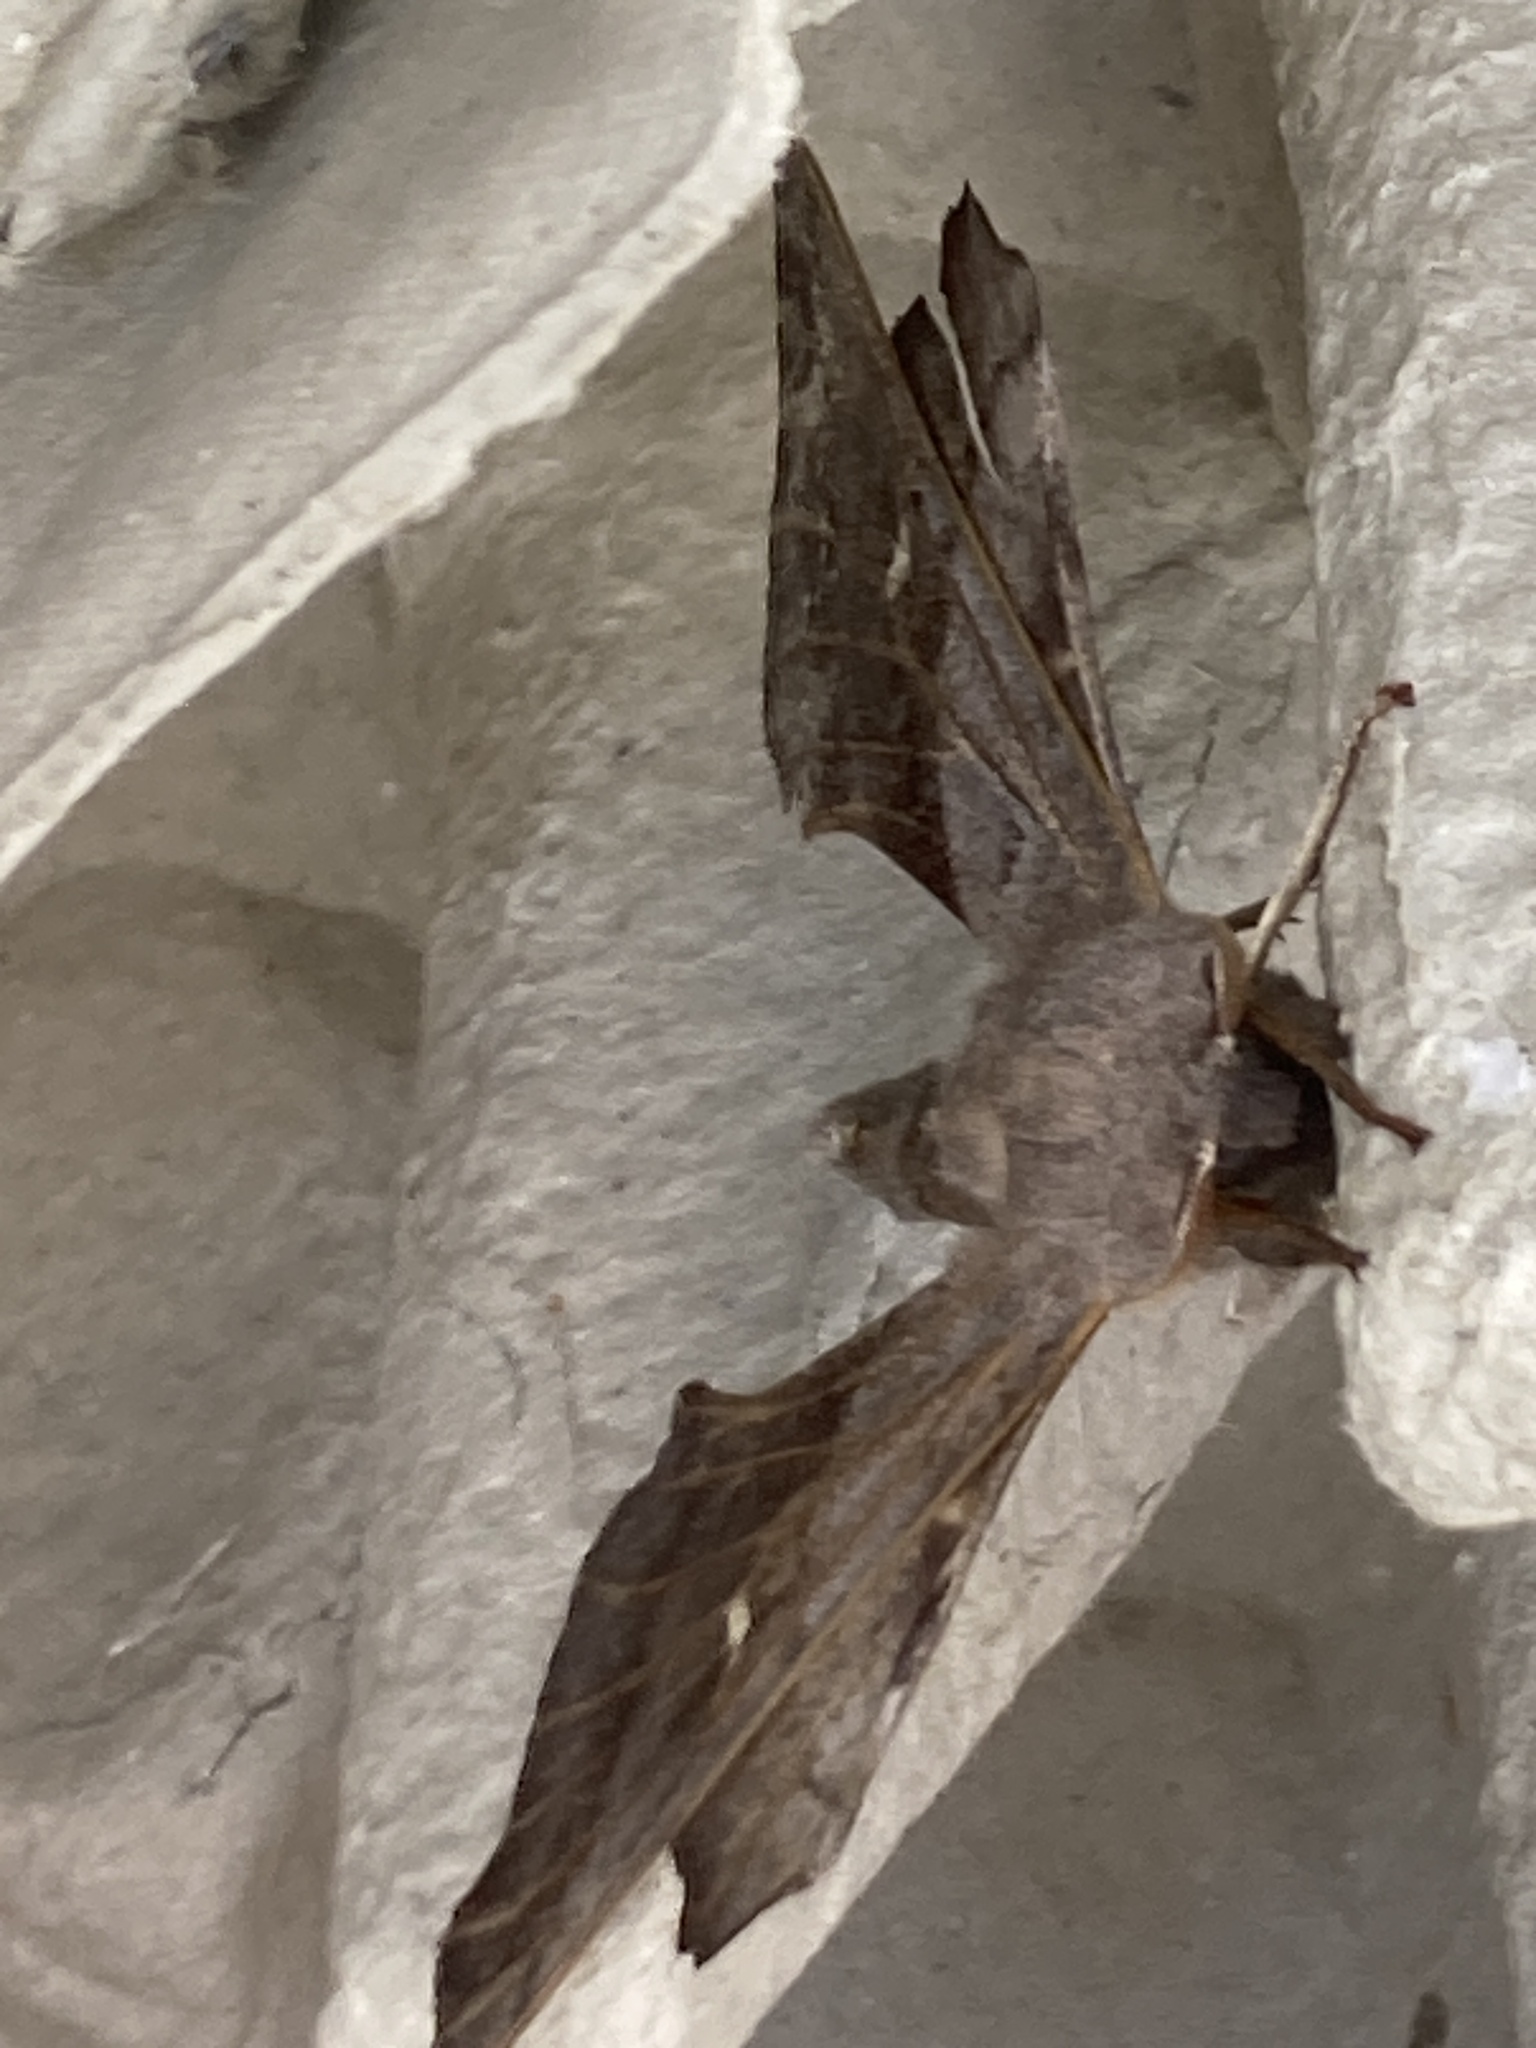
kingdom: Animalia
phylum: Arthropoda
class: Insecta
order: Lepidoptera
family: Sphingidae
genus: Laothoe
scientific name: Laothoe populi
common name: Poplar hawk-moth
